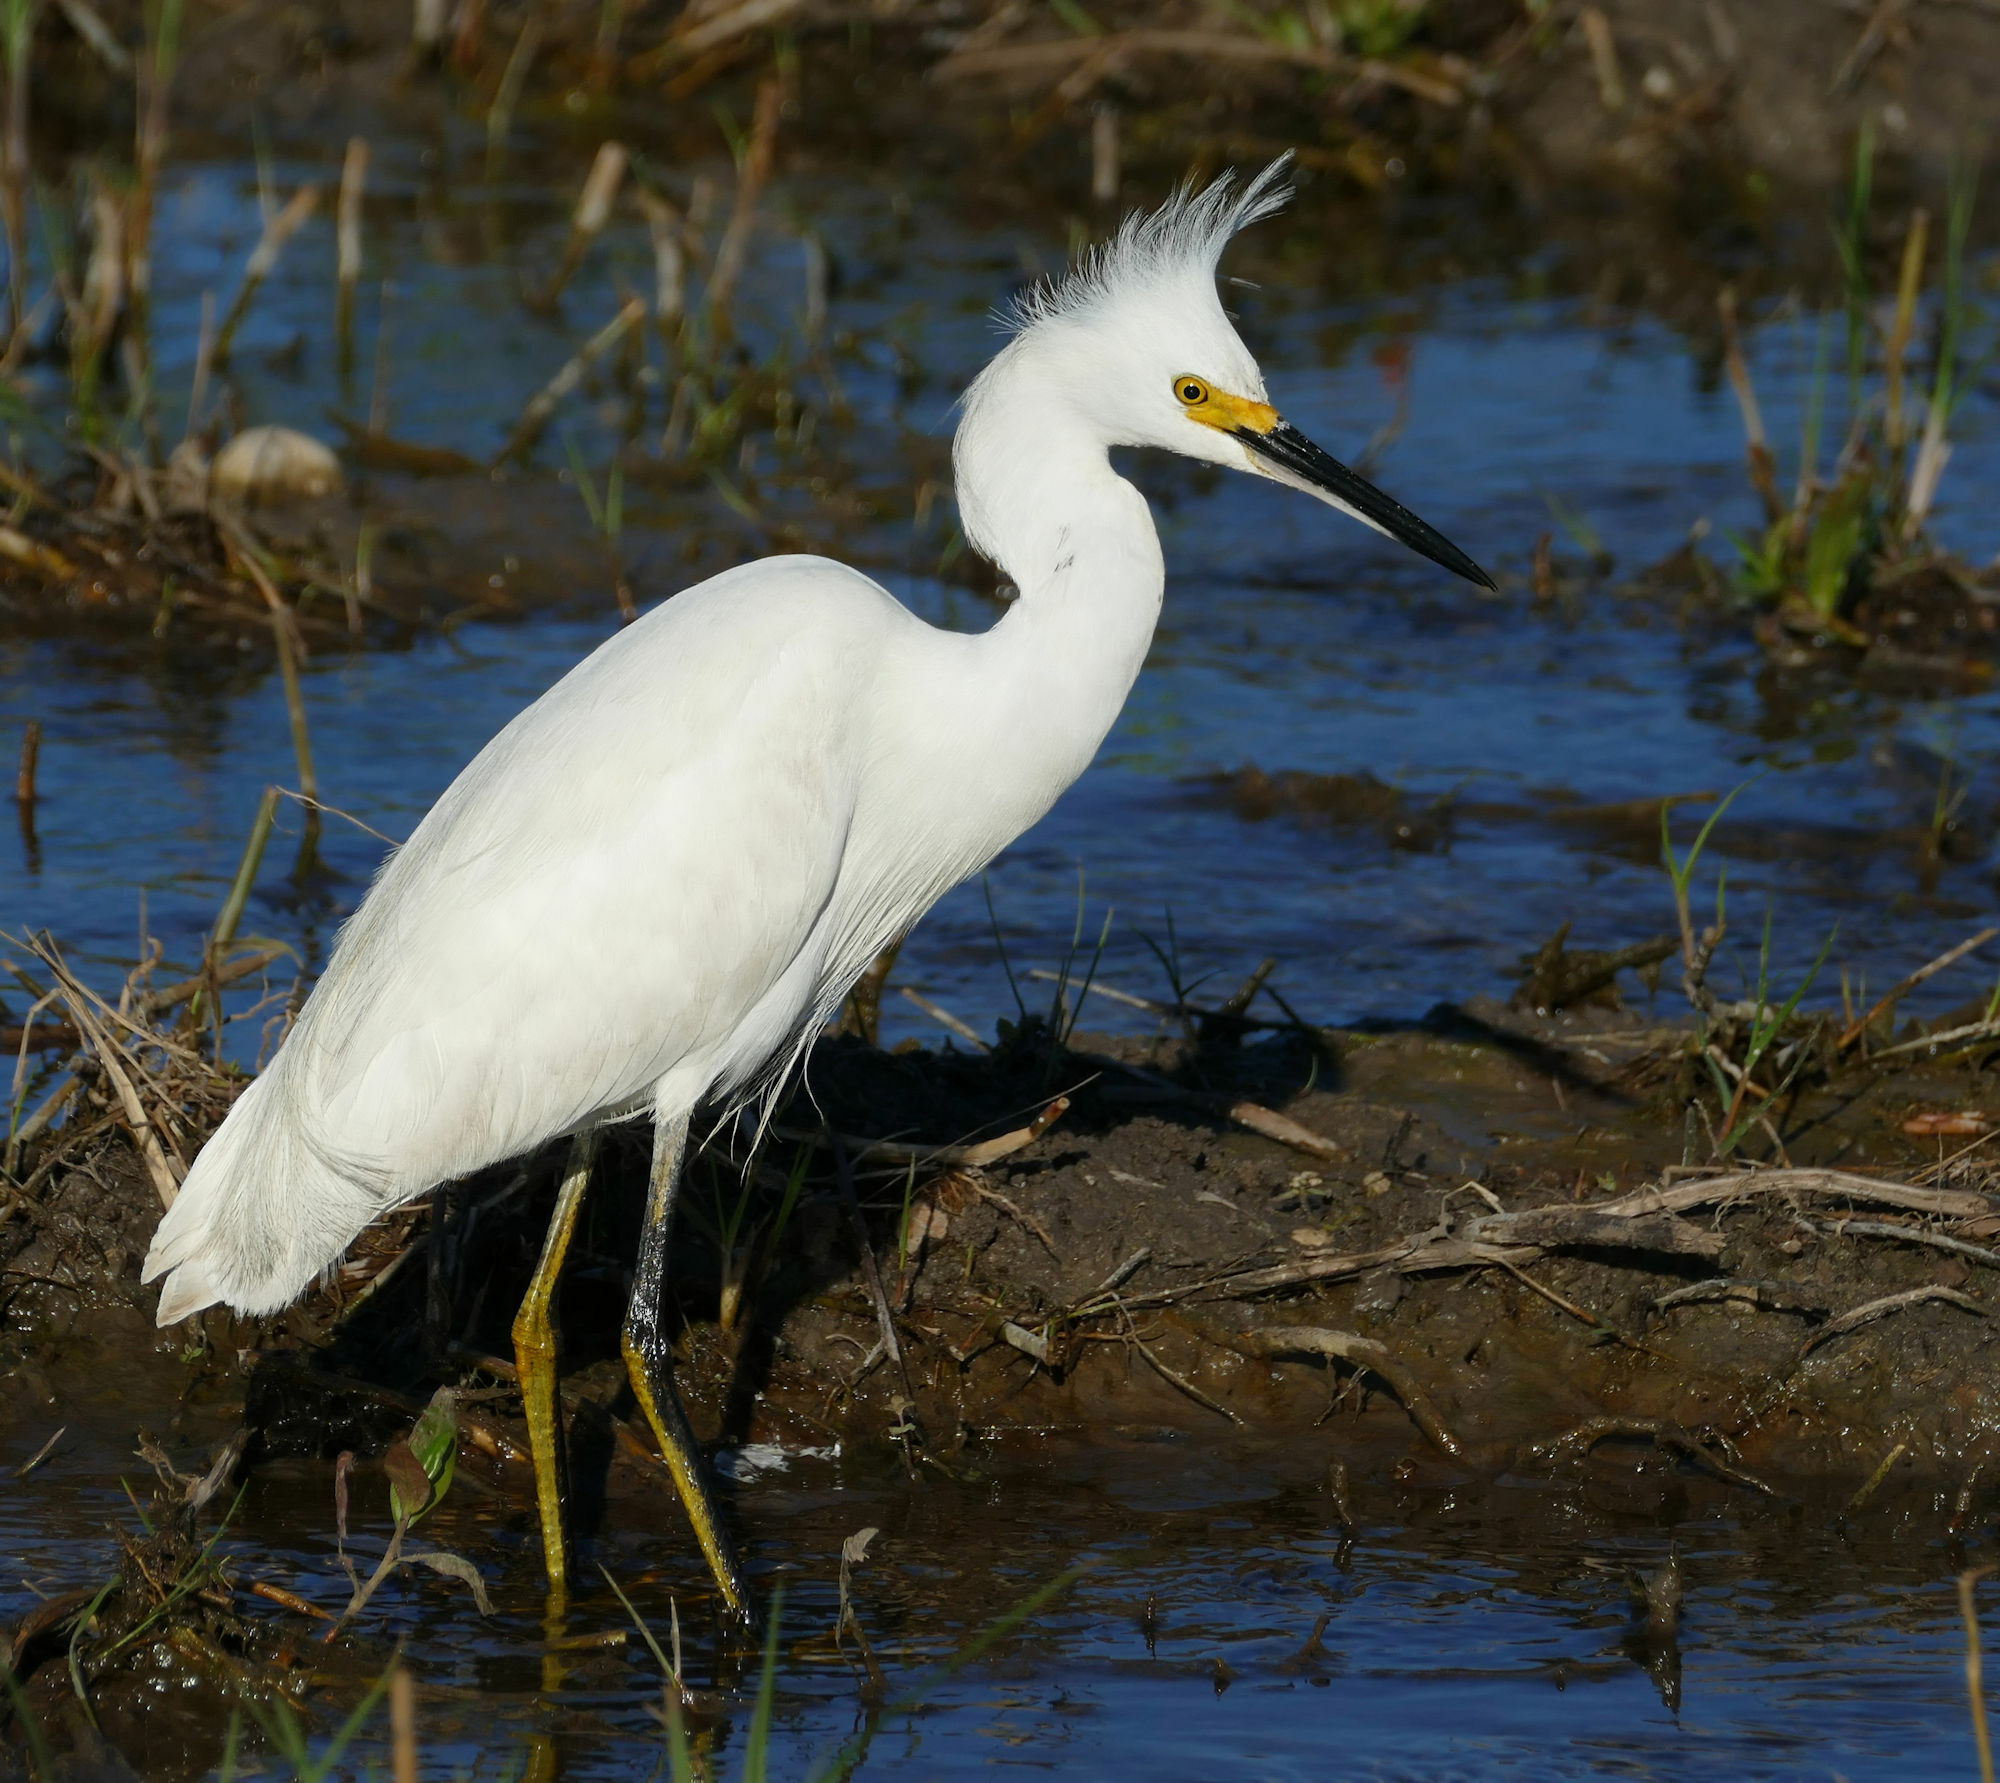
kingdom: Animalia
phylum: Chordata
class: Aves
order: Pelecaniformes
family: Ardeidae
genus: Egretta
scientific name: Egretta thula
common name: Snowy egret
